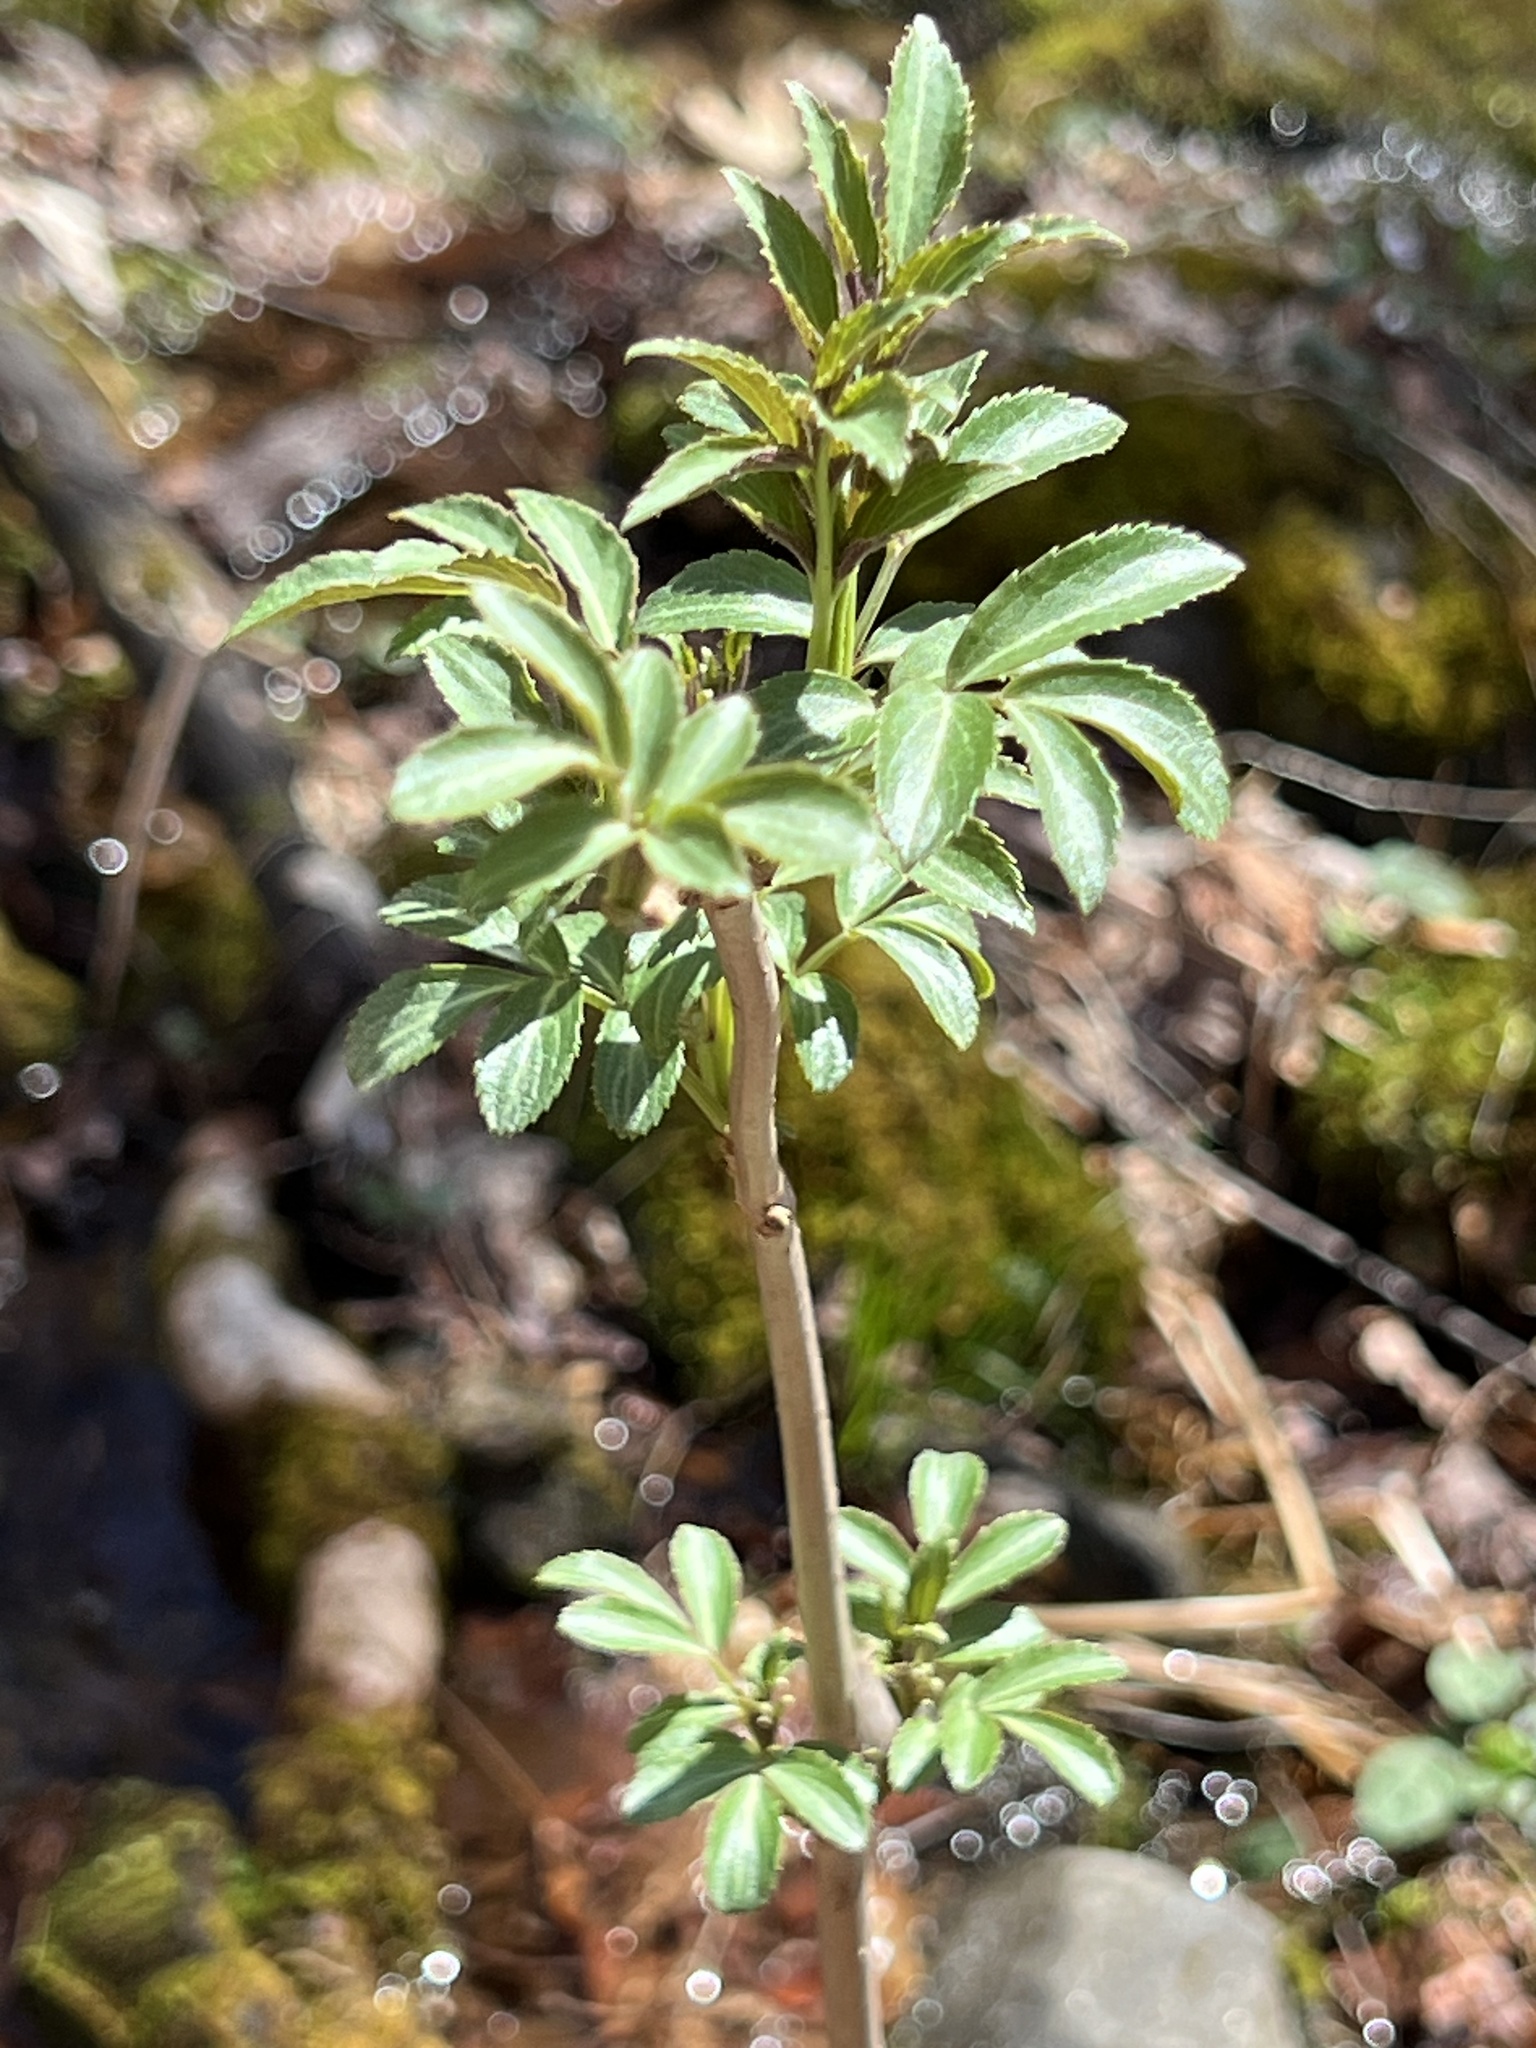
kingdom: Plantae
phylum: Tracheophyta
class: Magnoliopsida
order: Dipsacales
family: Viburnaceae
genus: Sambucus
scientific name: Sambucus canadensis
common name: American elder
